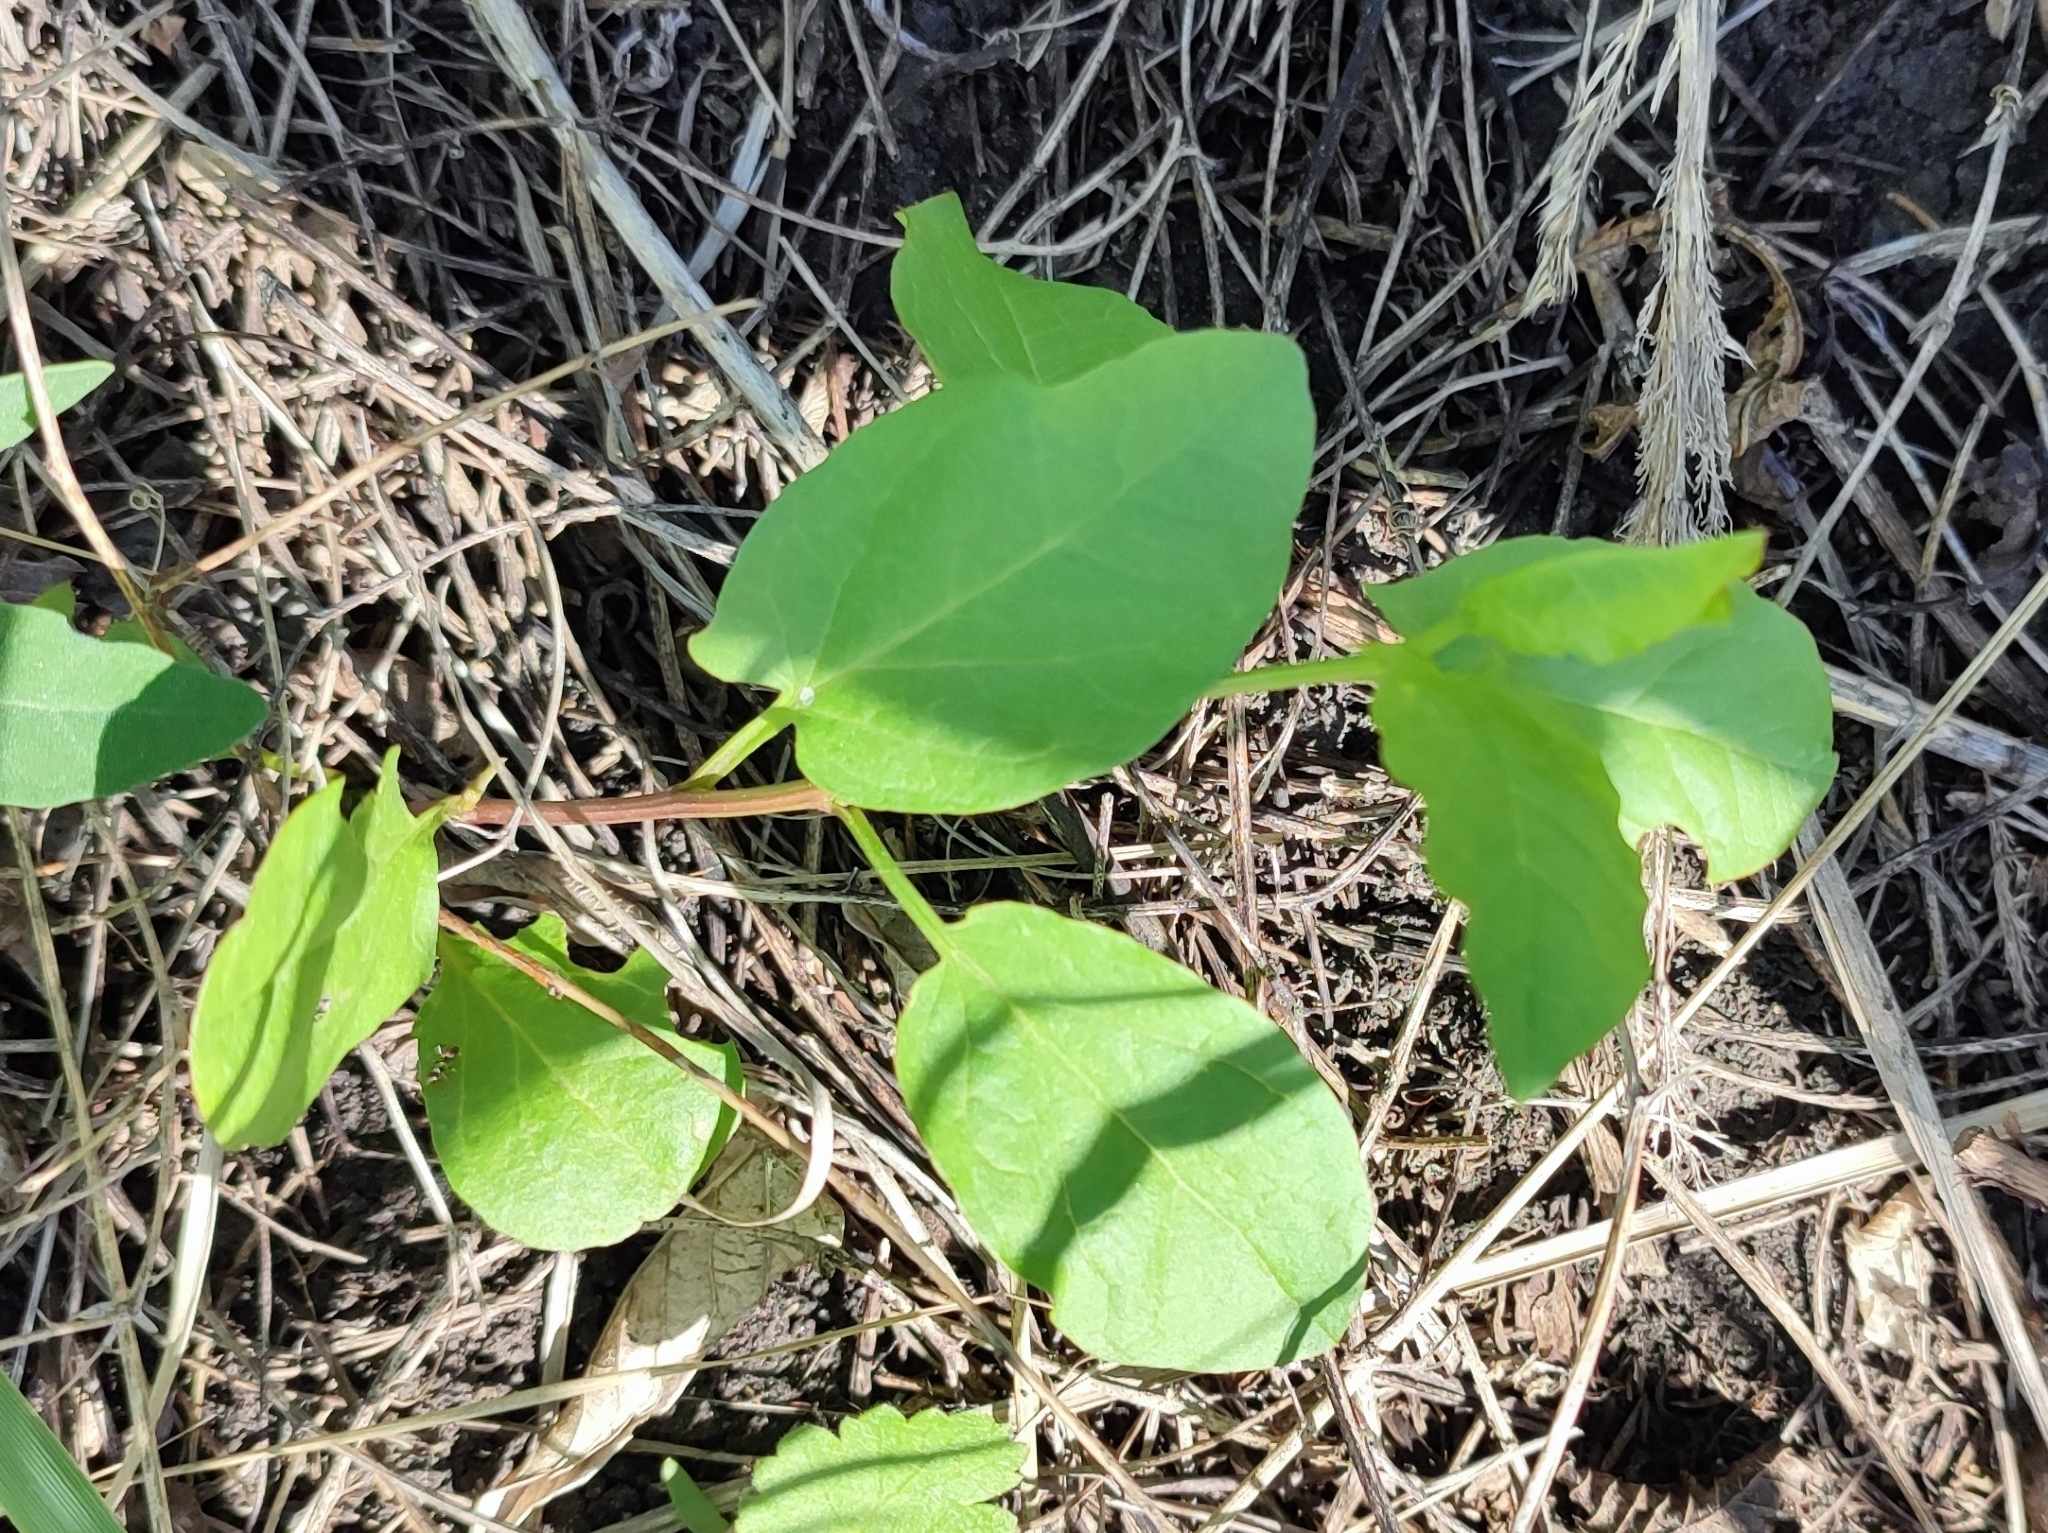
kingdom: Plantae
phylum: Tracheophyta
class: Magnoliopsida
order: Solanales
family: Convolvulaceae
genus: Convolvulus
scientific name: Convolvulus arvensis
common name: Field bindweed
